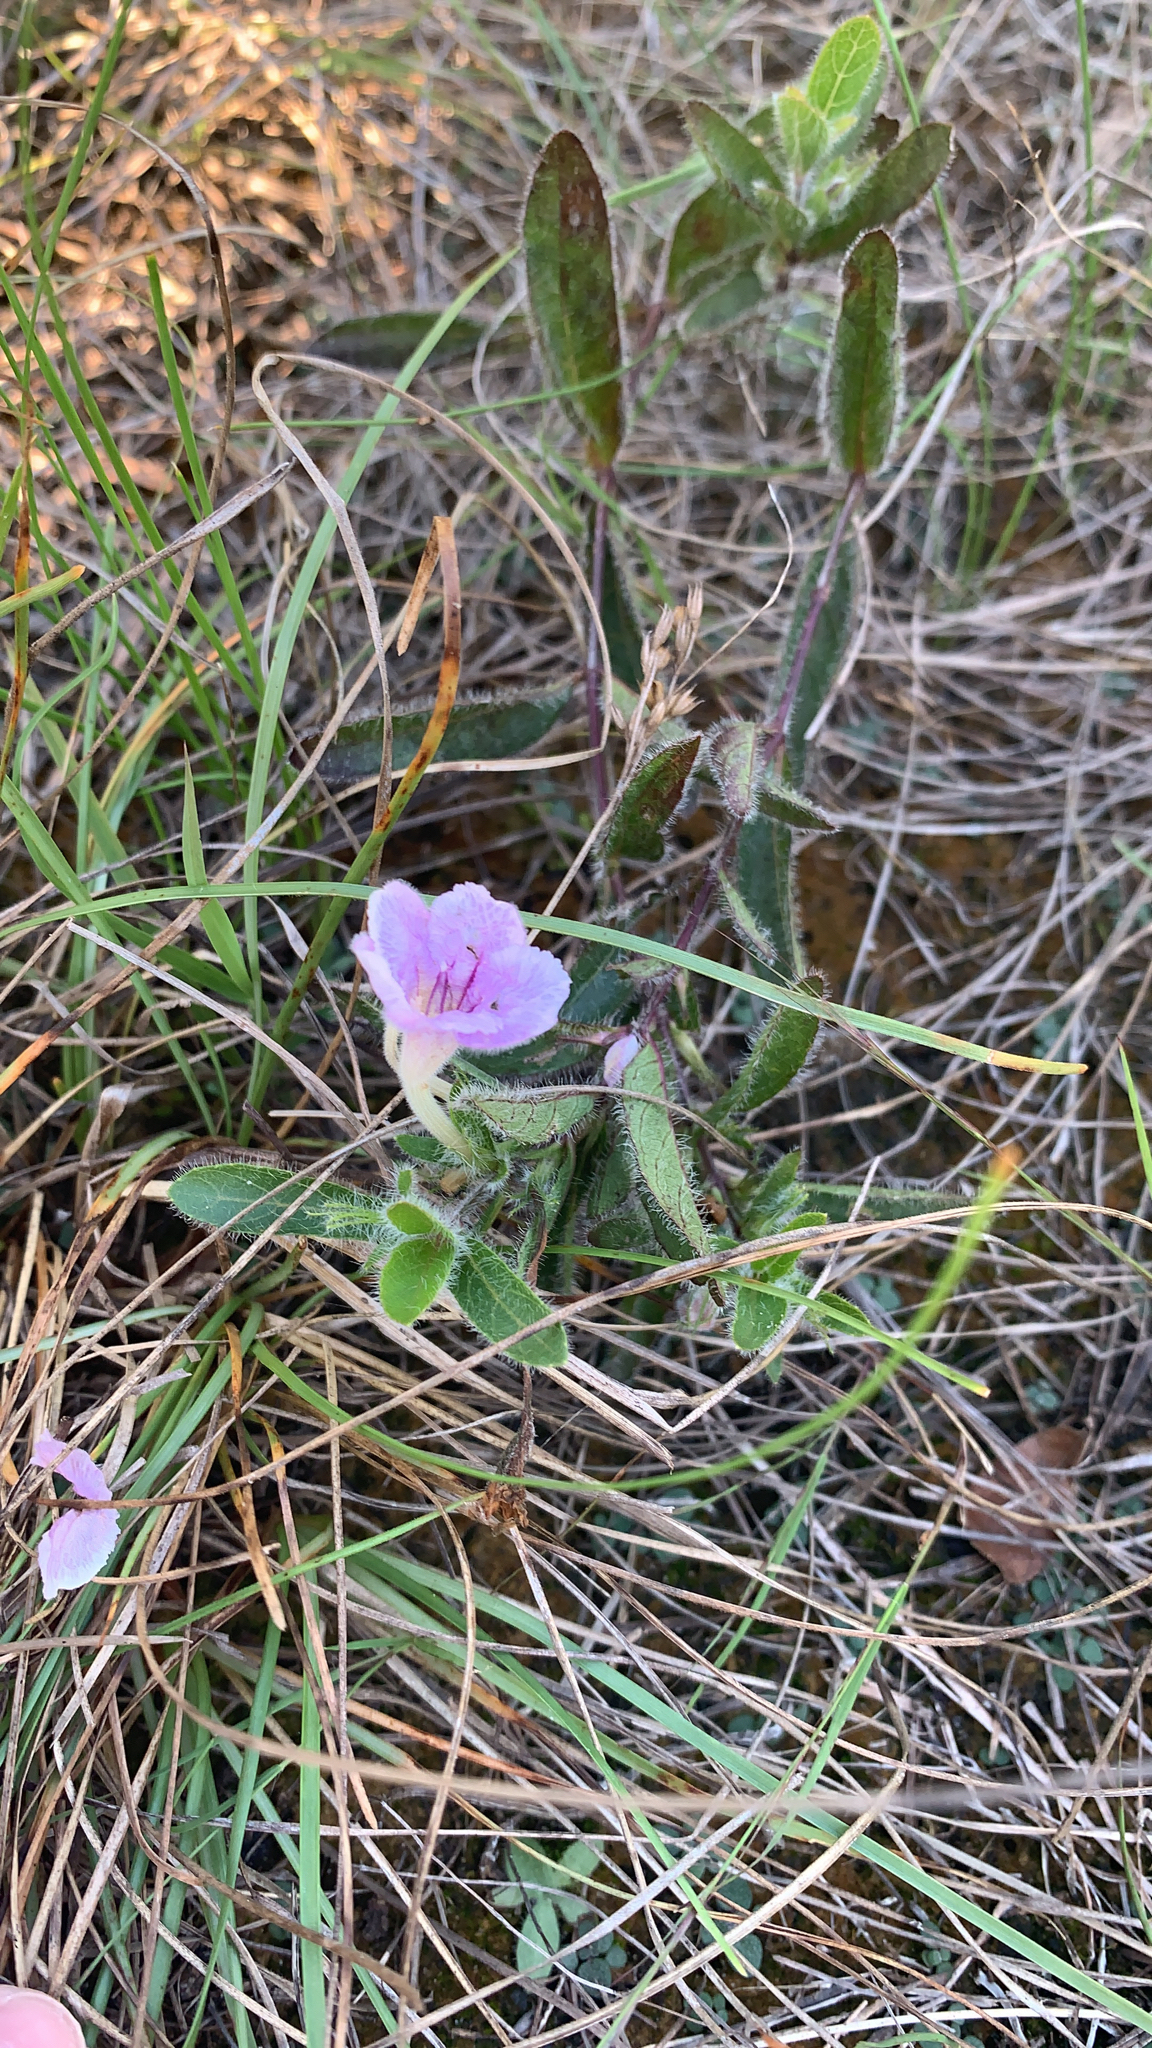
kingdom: Plantae
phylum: Tracheophyta
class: Magnoliopsida
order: Lamiales
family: Acanthaceae
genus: Ruellia
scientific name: Ruellia humilis
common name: Fringe-leaf ruellia
